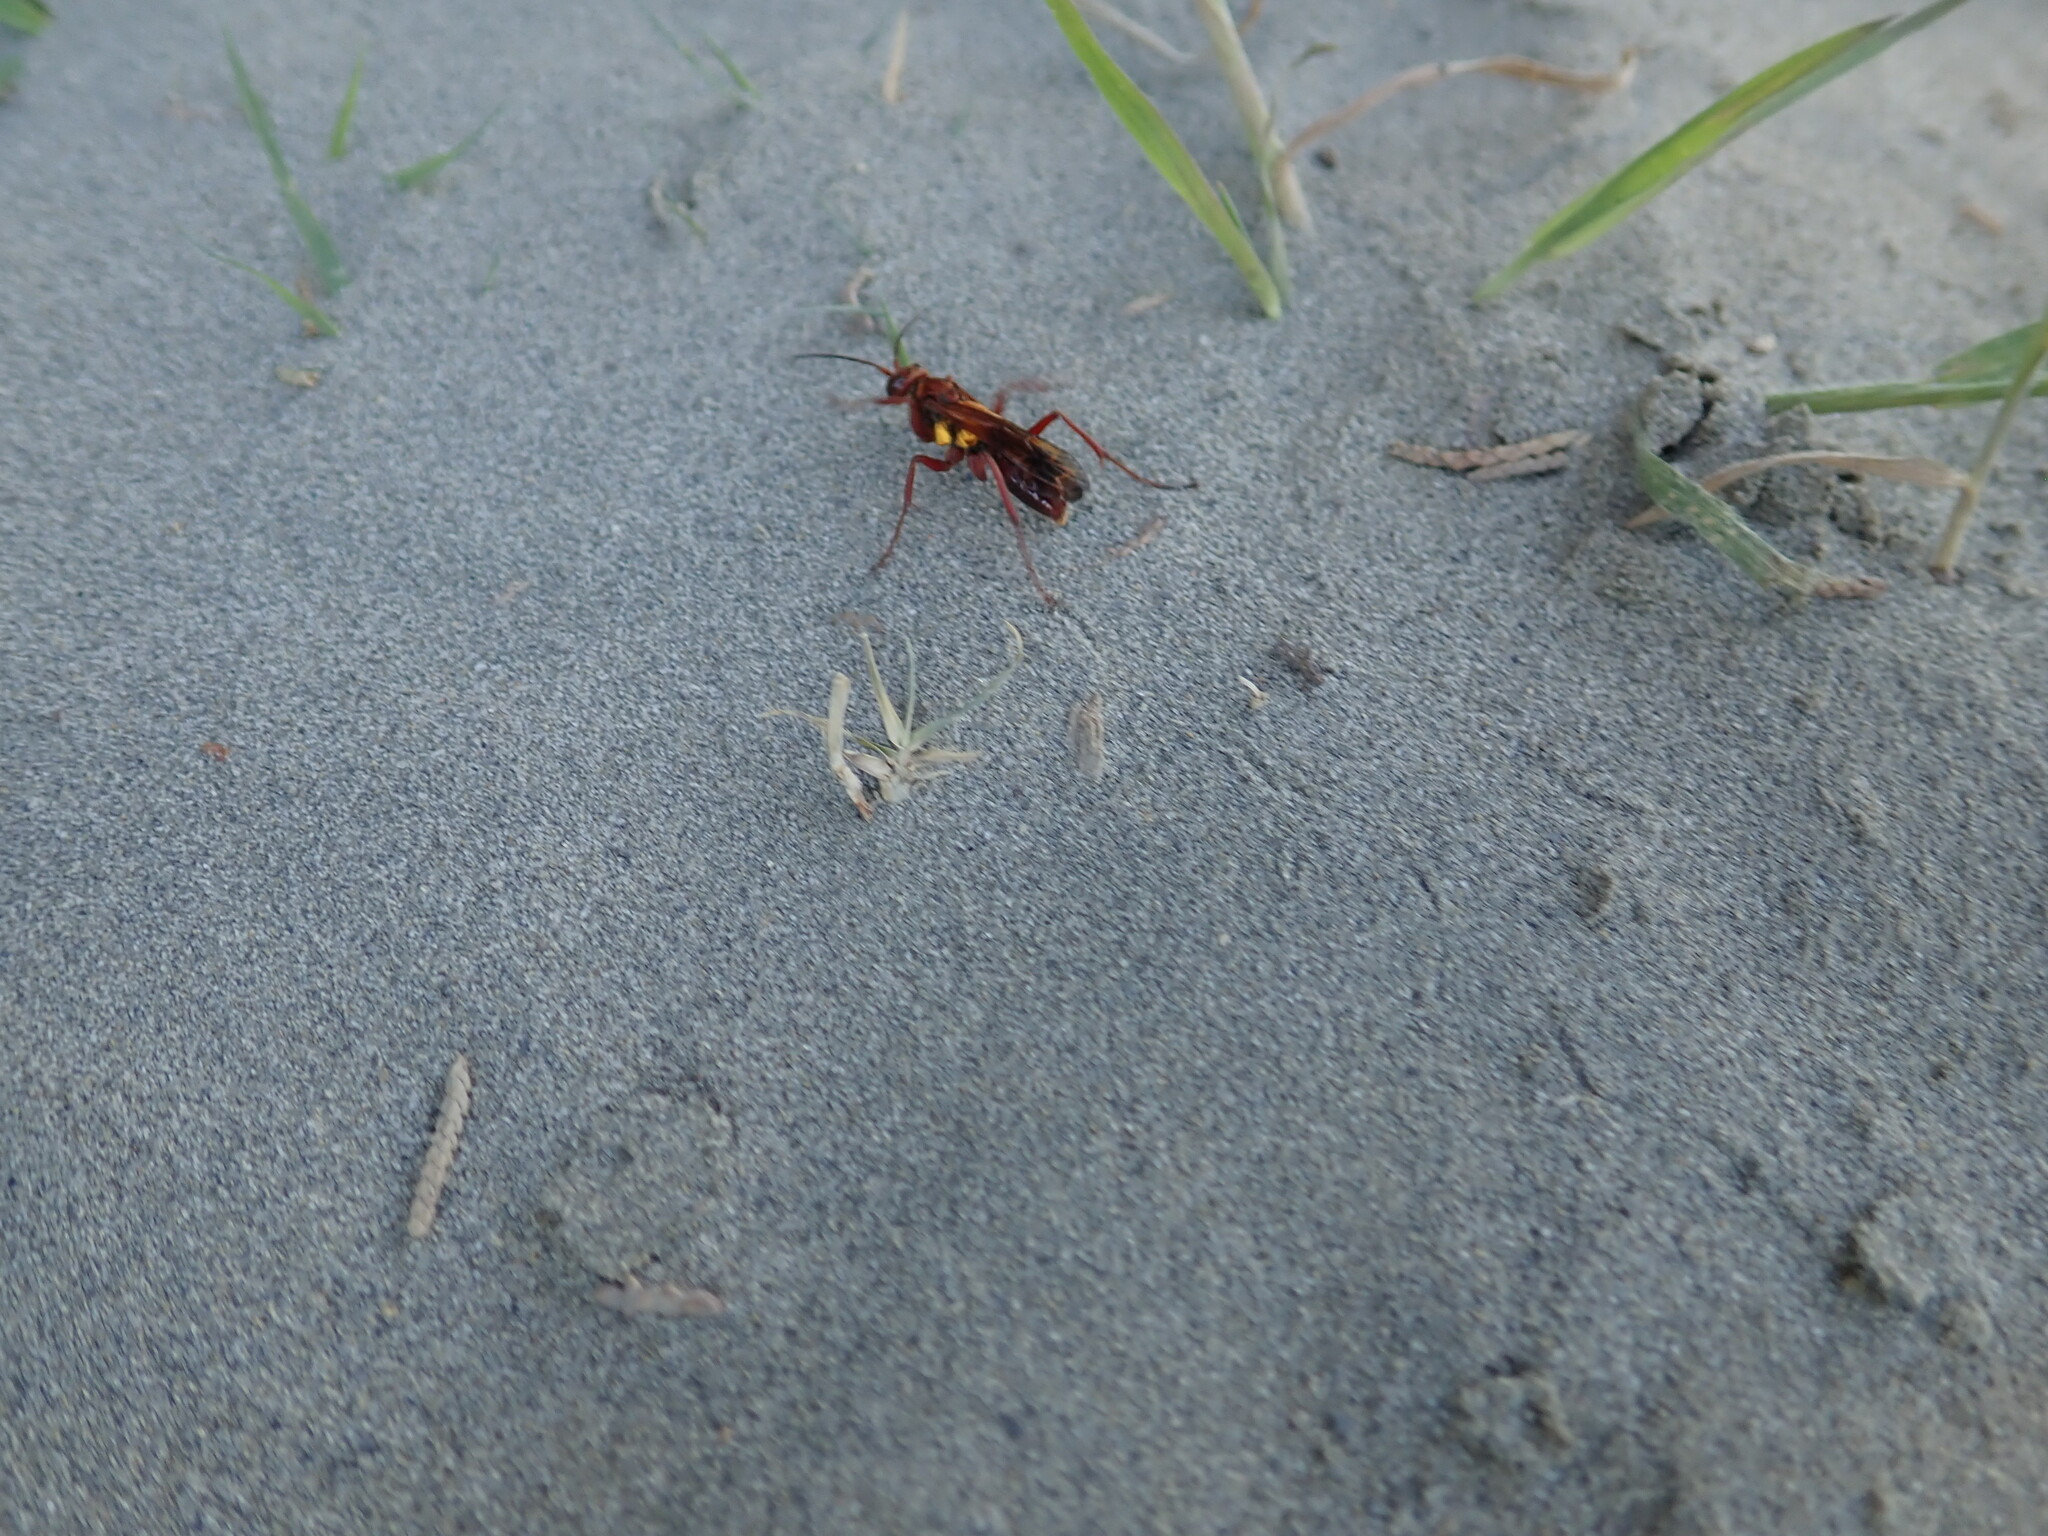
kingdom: Animalia
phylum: Arthropoda
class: Insecta
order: Hymenoptera
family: Pompilidae
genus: Sphictostethus
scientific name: Sphictostethus nitidus
